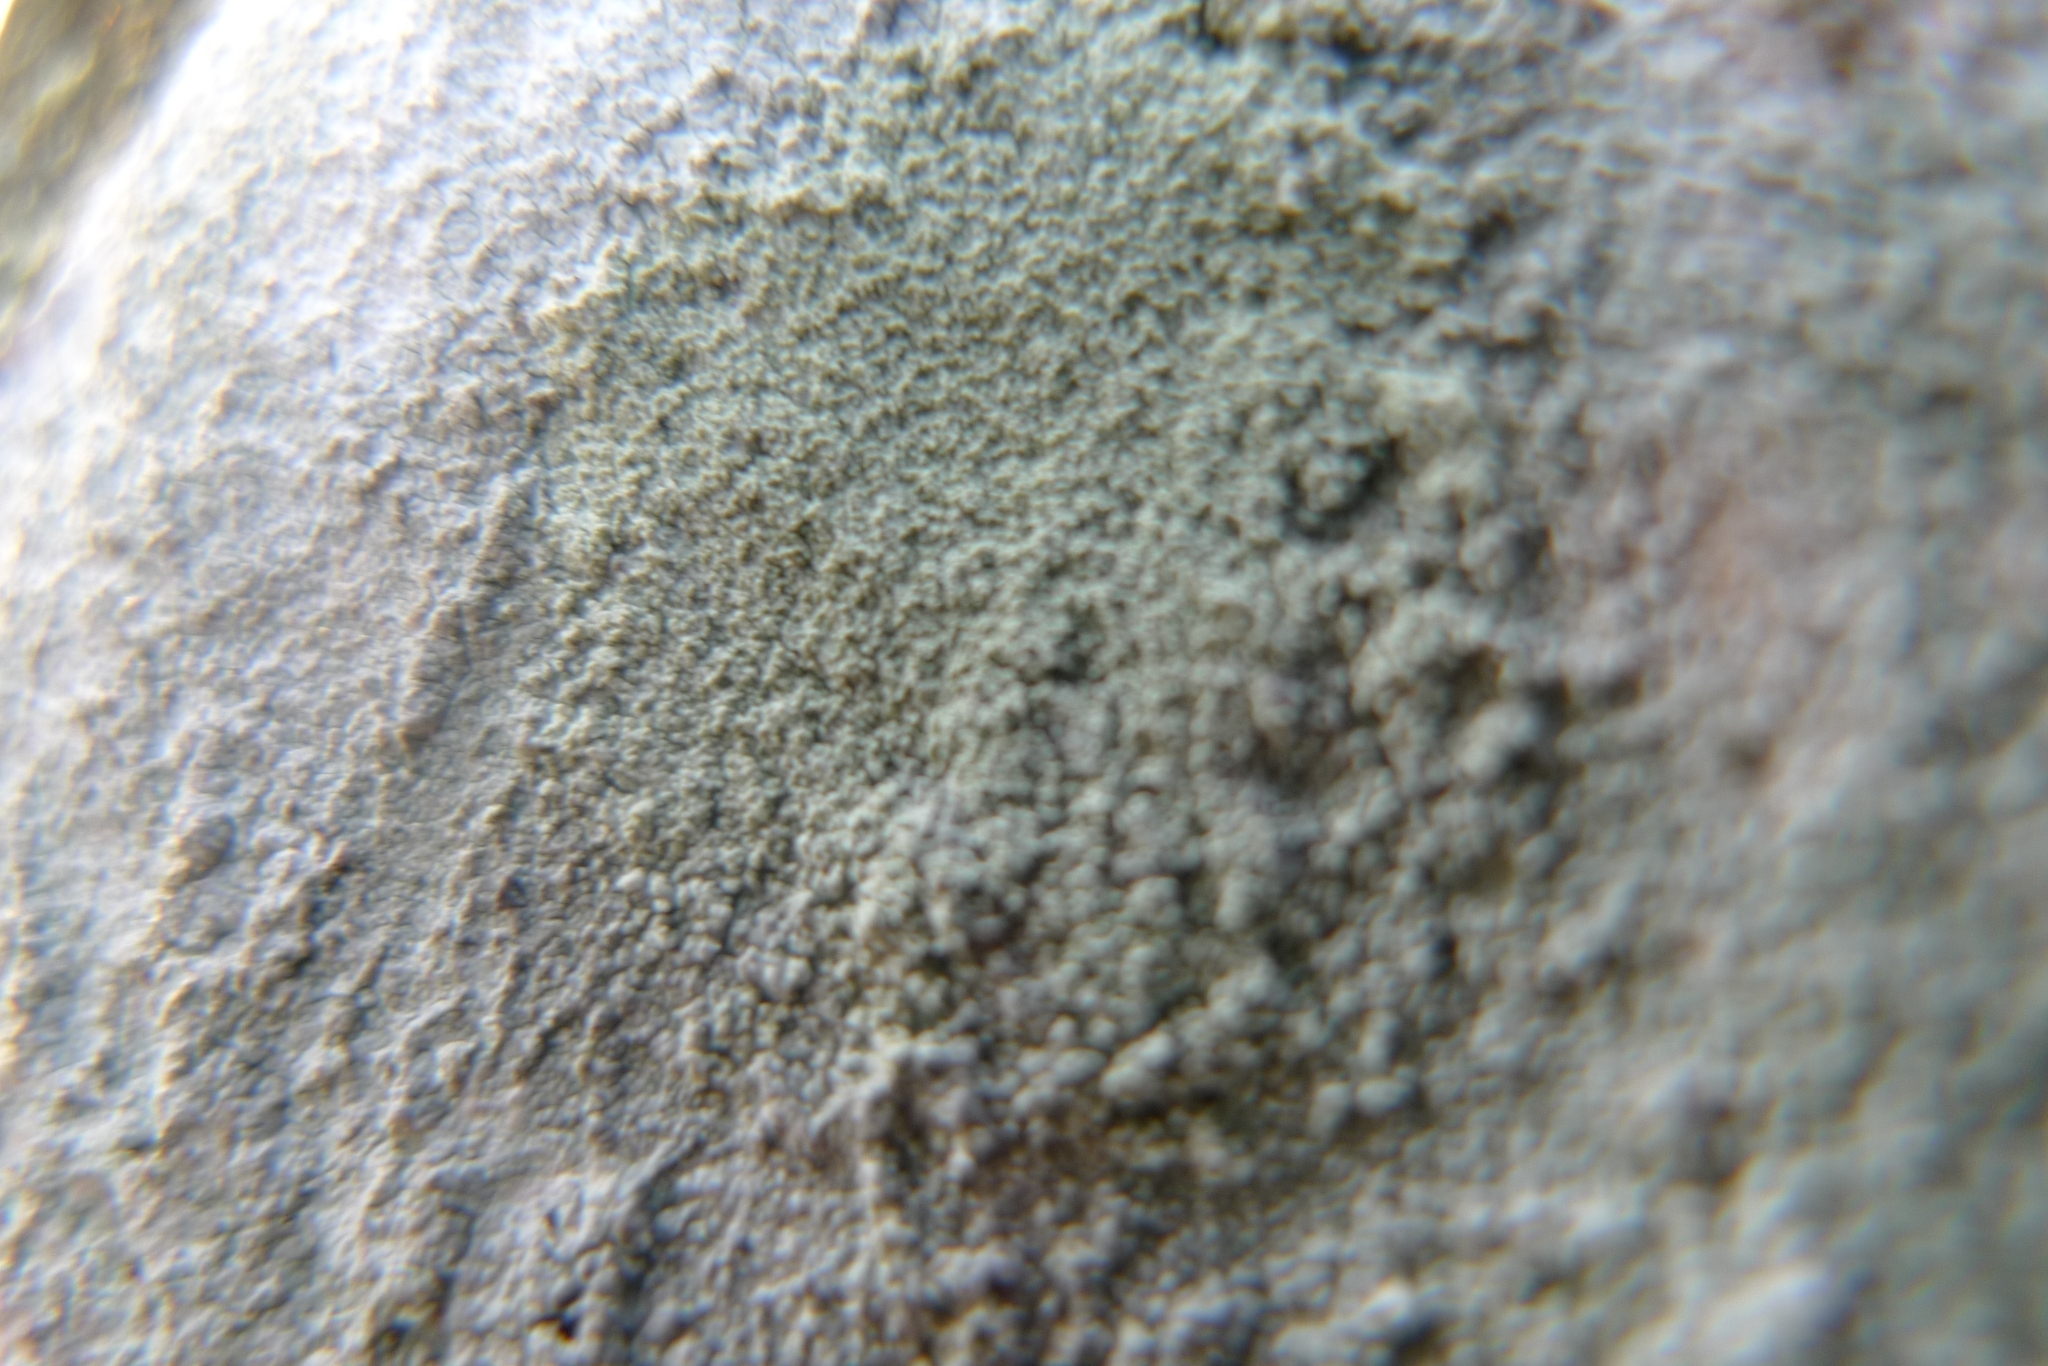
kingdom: Fungi
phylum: Ascomycota
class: Lecanoromycetes
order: Ostropales
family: Phlyctidaceae
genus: Phlyctis
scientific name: Phlyctis argena
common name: Whitewash lichen
